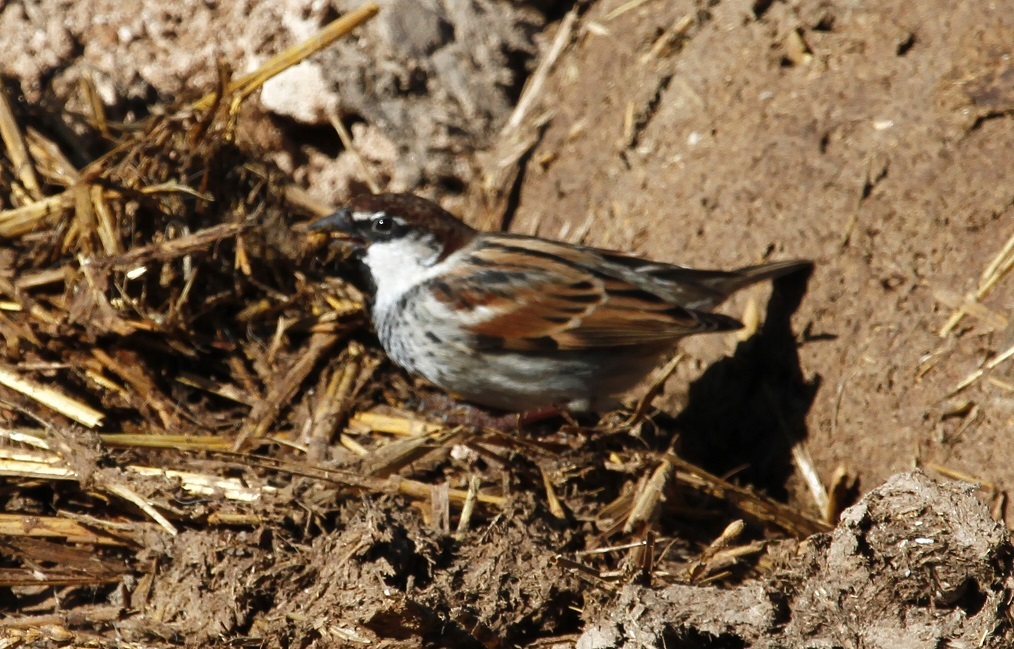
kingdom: Animalia
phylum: Chordata
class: Aves
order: Passeriformes
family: Passeridae
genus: Passer
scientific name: Passer hispaniolensis
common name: Spanish sparrow
